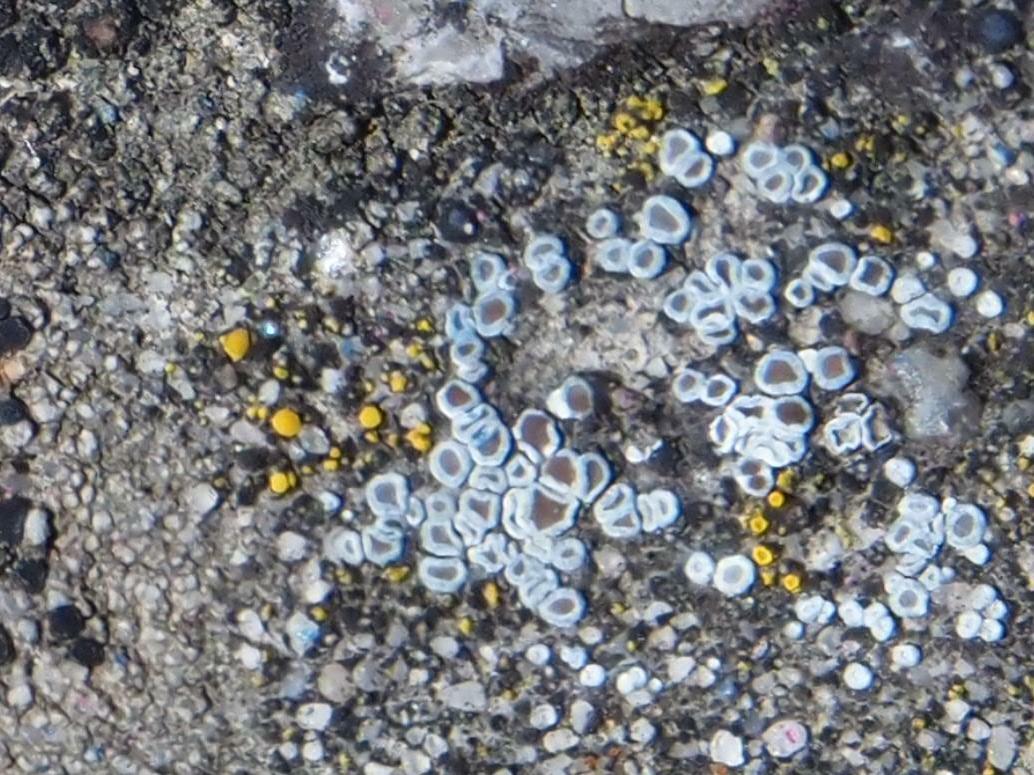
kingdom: Fungi
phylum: Ascomycota
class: Lecanoromycetes
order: Lecanorales
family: Lecanoraceae
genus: Polyozosia
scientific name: Polyozosia dispersa
